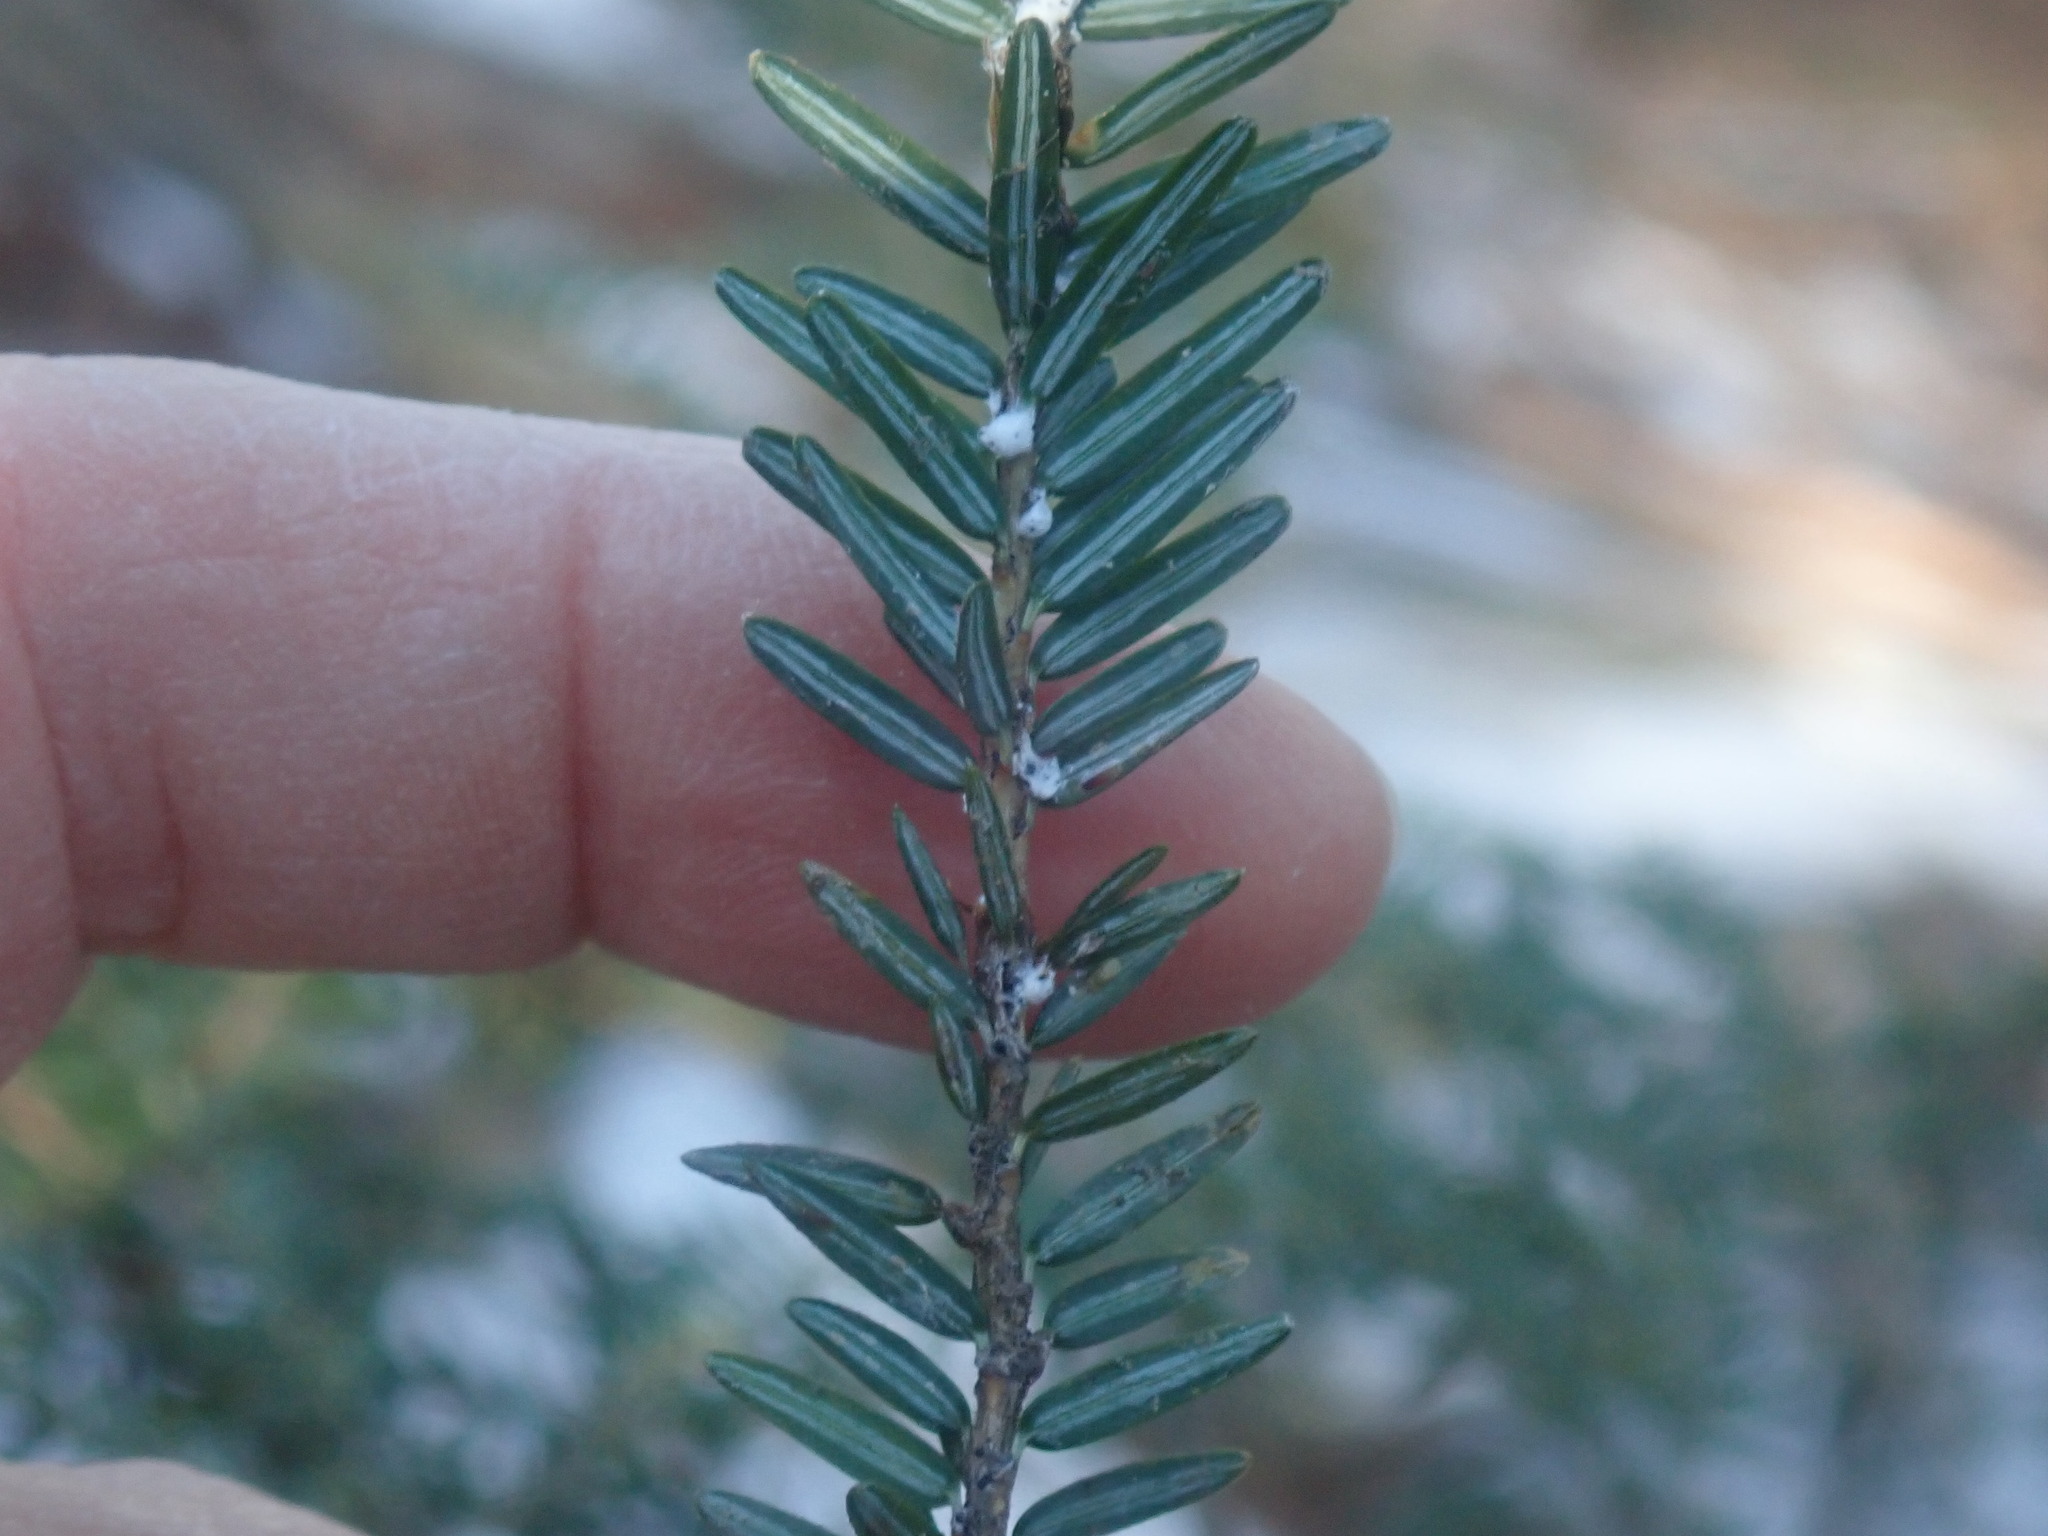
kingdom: Animalia
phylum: Arthropoda
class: Insecta
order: Hemiptera
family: Adelgidae
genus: Adelges
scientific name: Adelges tsugae
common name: Hemlock woolly adelgid
